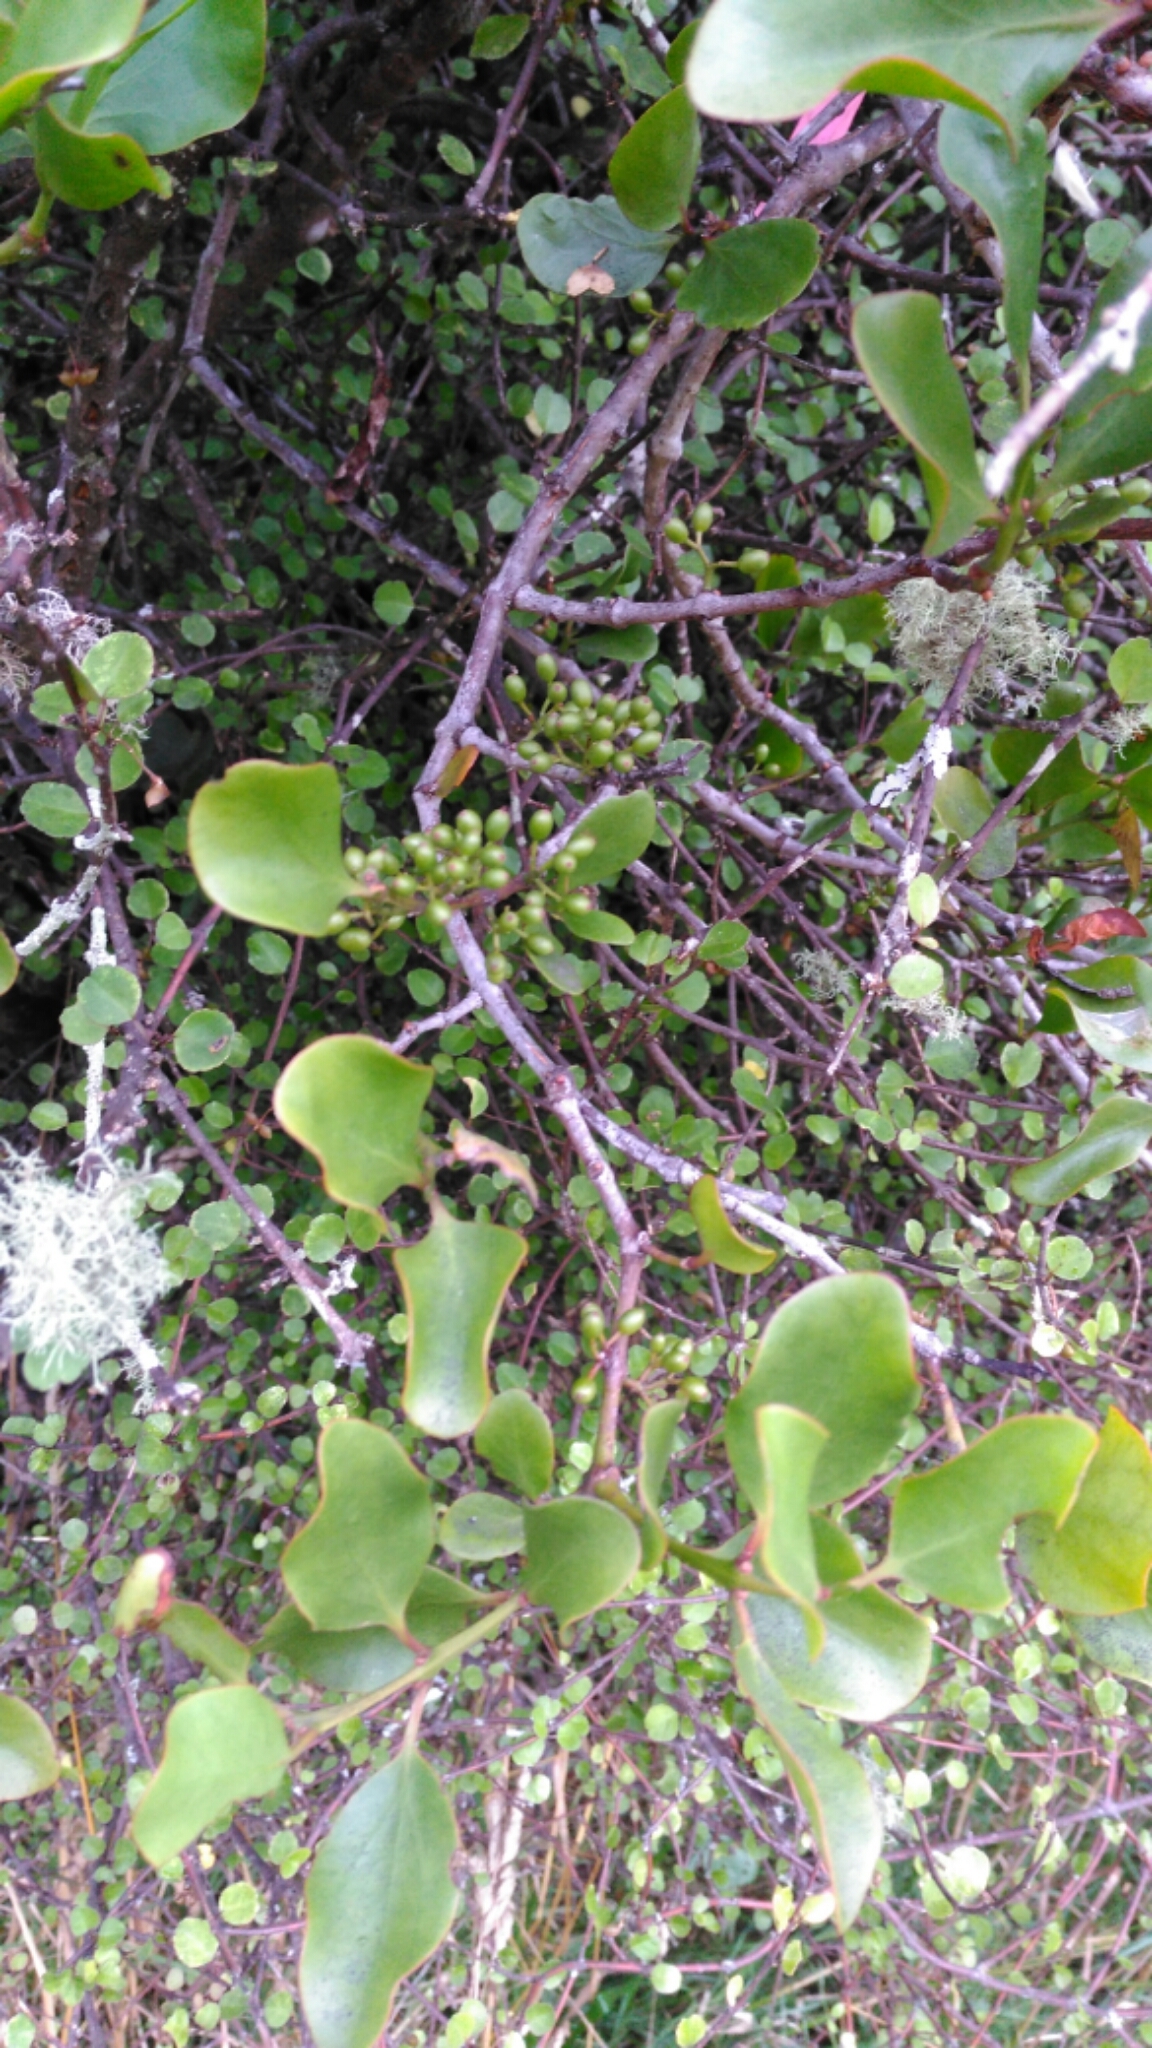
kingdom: Plantae
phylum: Tracheophyta
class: Magnoliopsida
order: Santalales
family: Loranthaceae
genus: Ileostylus
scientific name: Ileostylus micranthus
